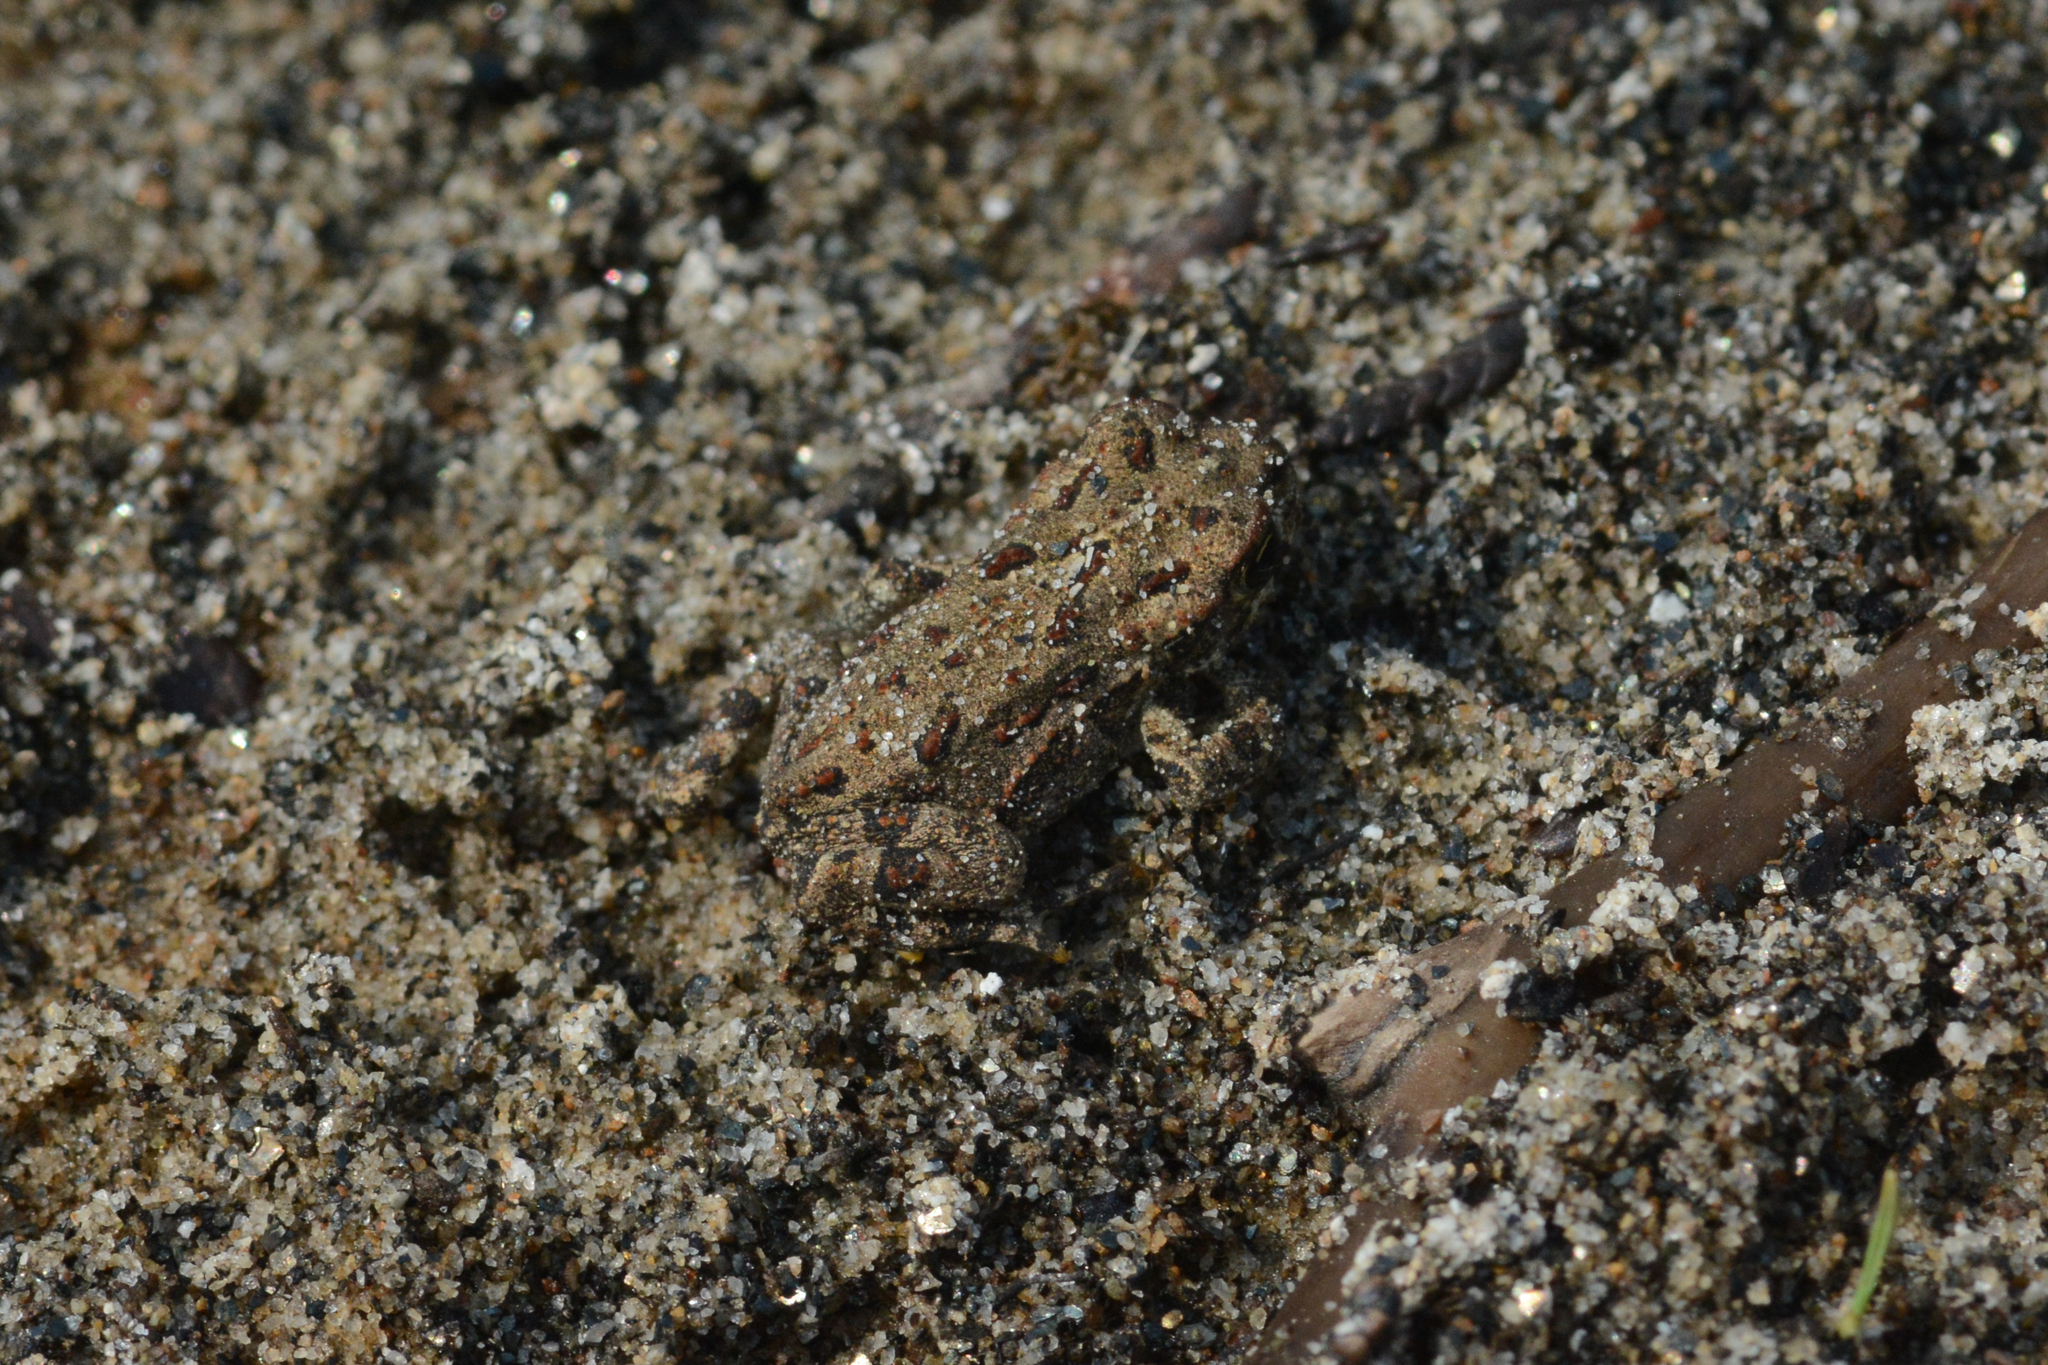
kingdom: Animalia
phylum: Chordata
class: Amphibia
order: Anura
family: Bufonidae
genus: Anaxyrus
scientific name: Anaxyrus boreas
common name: Western toad
